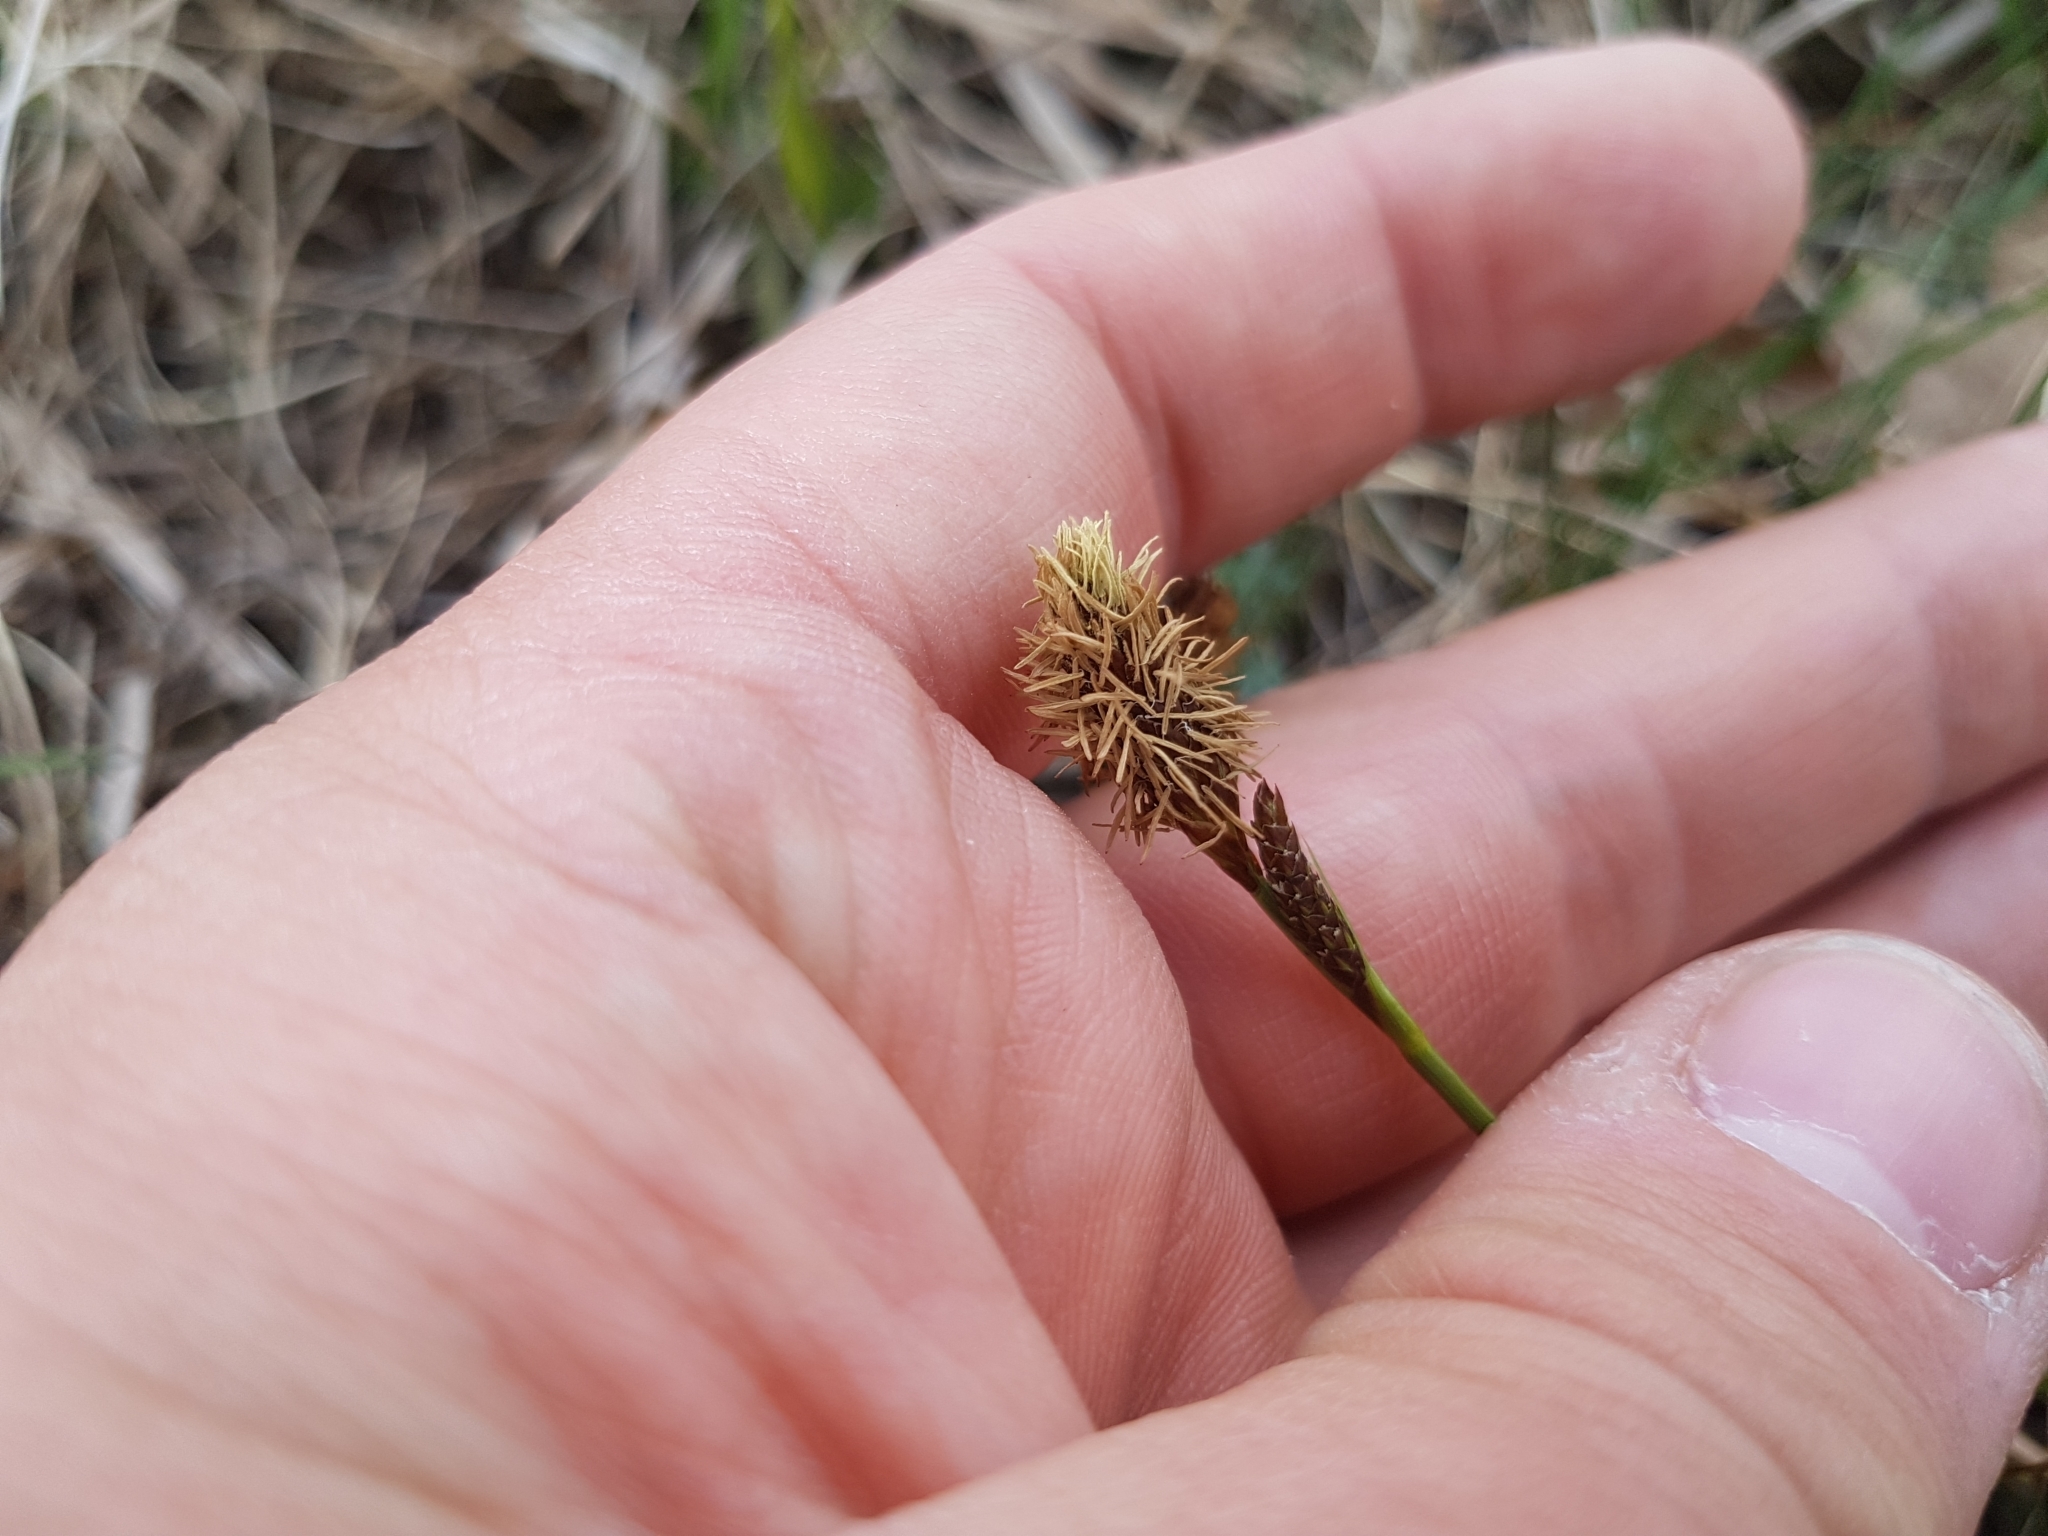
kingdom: Plantae
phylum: Tracheophyta
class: Liliopsida
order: Poales
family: Cyperaceae
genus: Carex
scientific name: Carex caryophyllea
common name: Spring sedge
